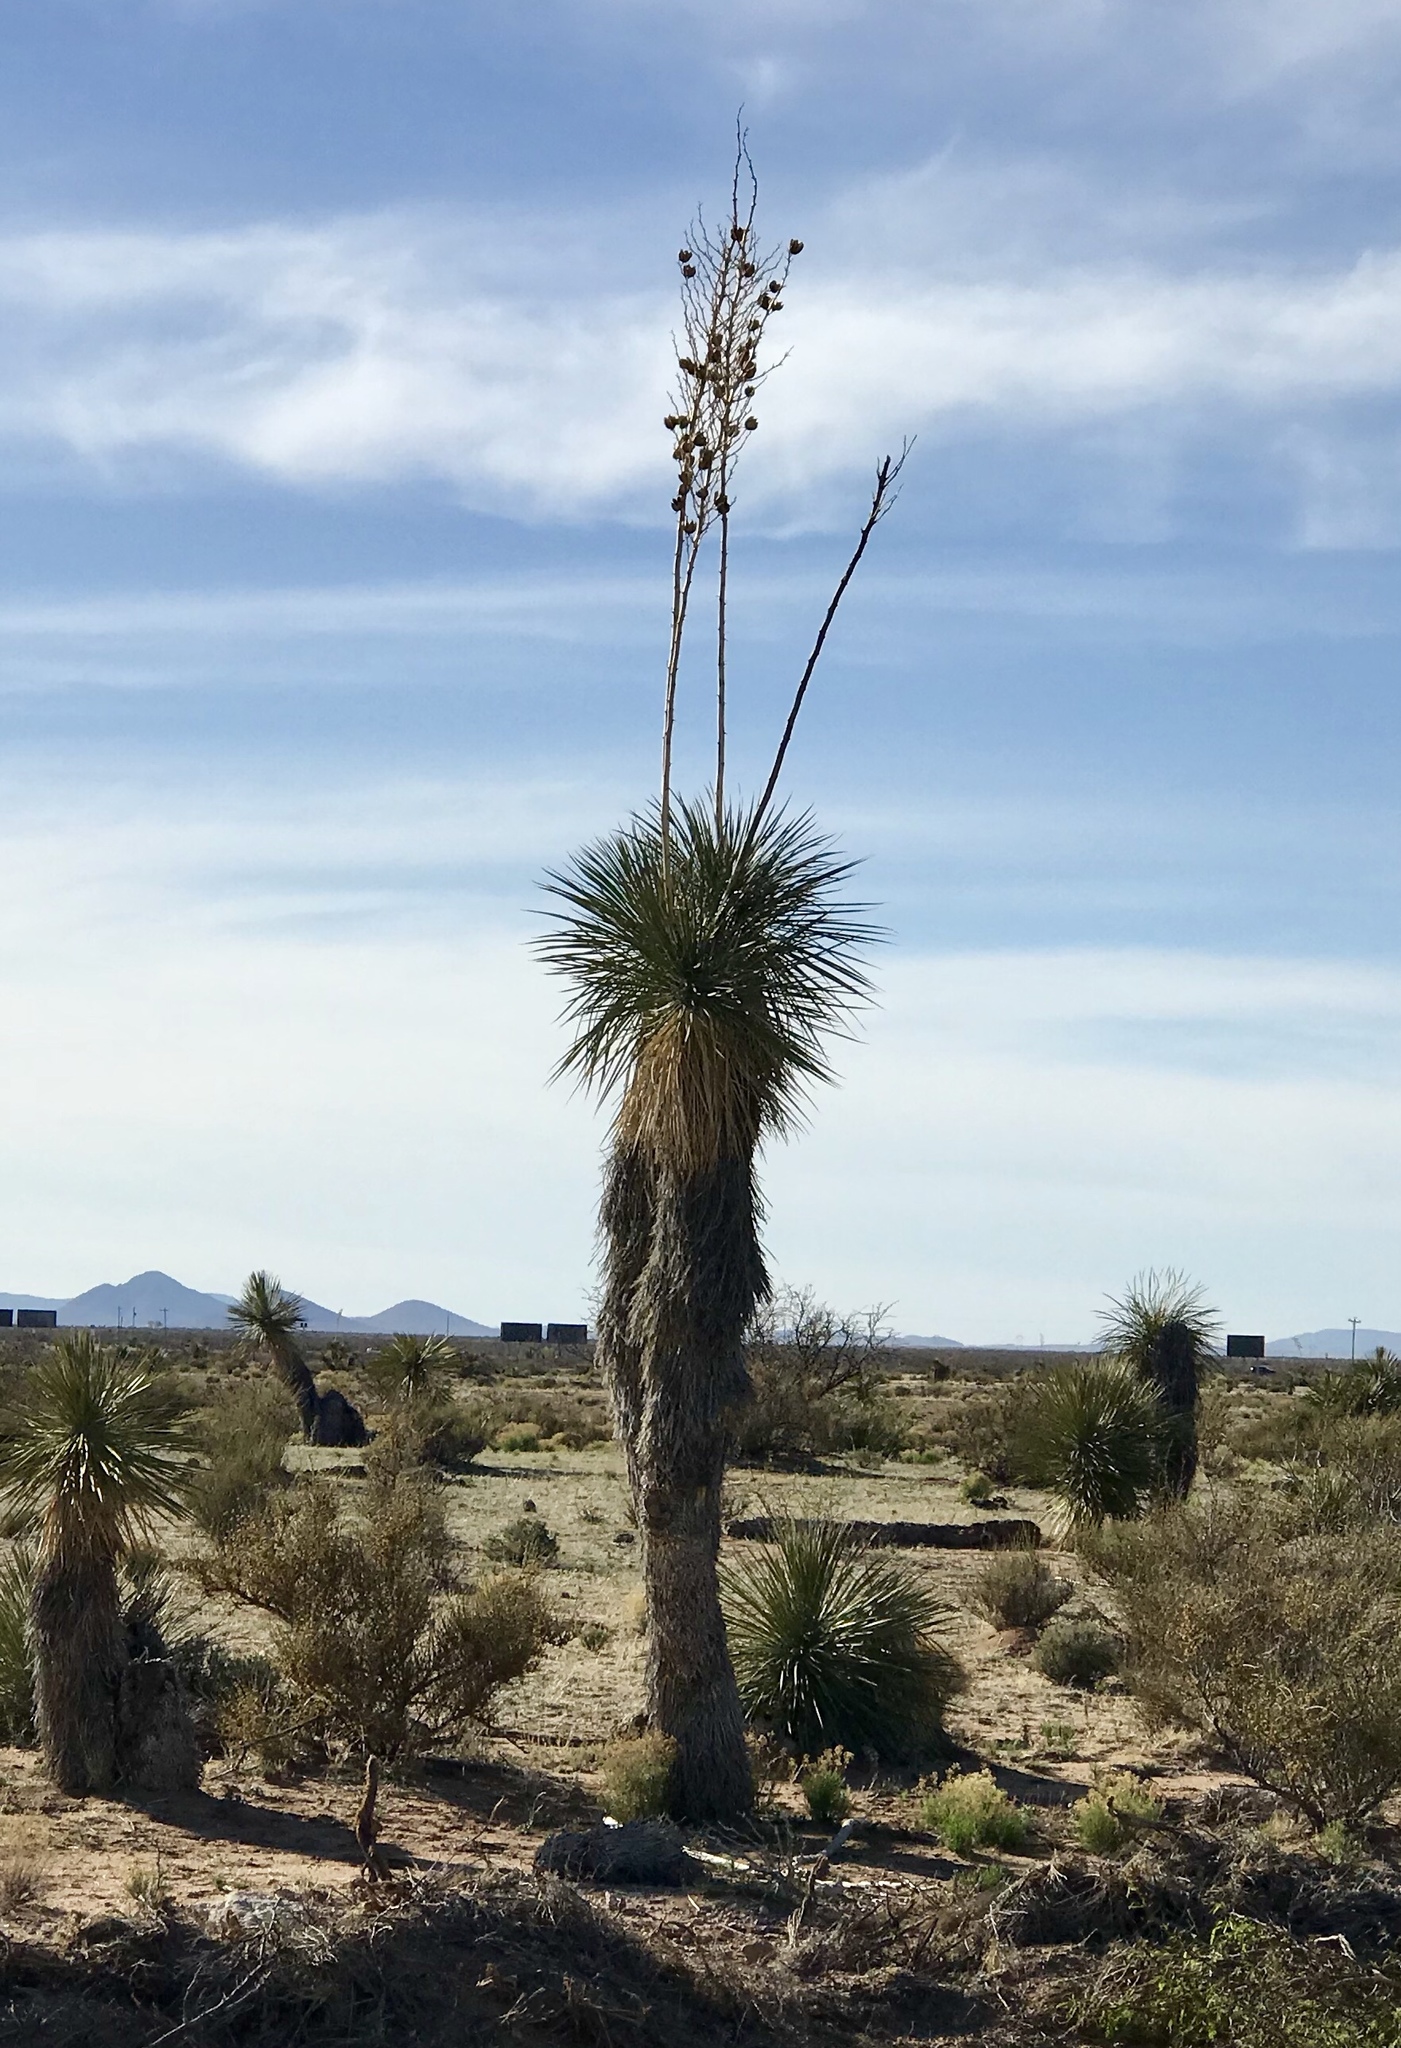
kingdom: Plantae
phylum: Tracheophyta
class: Liliopsida
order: Asparagales
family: Asparagaceae
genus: Yucca
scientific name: Yucca elata
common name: Palmella
